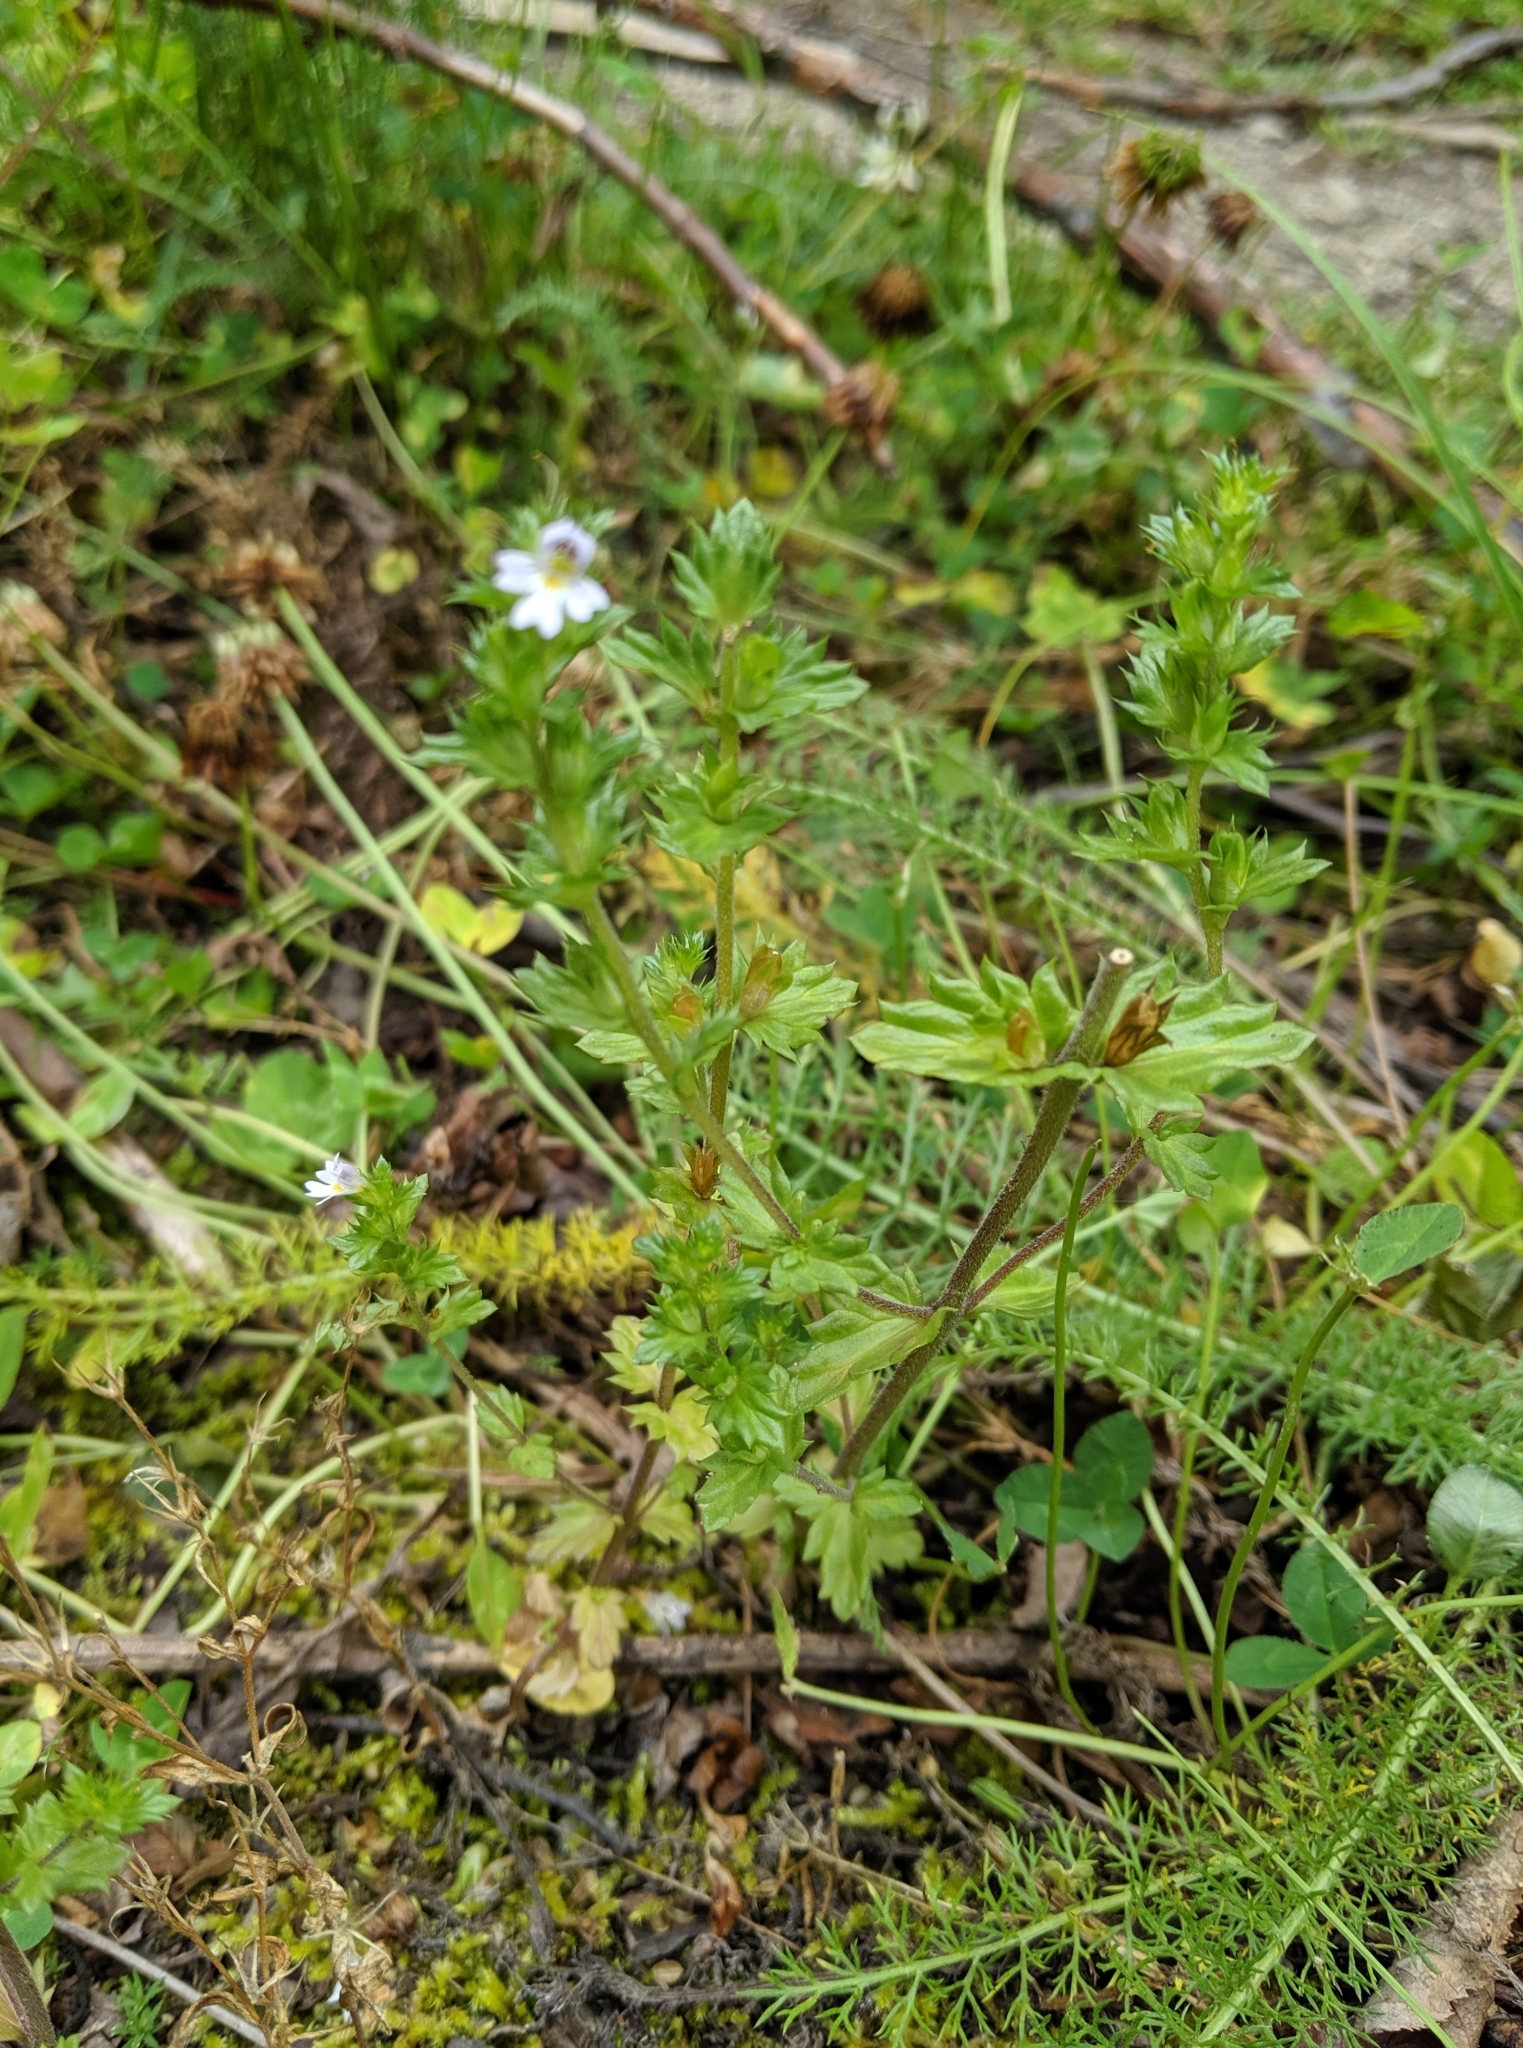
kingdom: Plantae
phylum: Tracheophyta
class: Magnoliopsida
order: Lamiales
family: Orobanchaceae
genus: Euphrasia
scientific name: Euphrasia nemorosa
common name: Common eyebright
